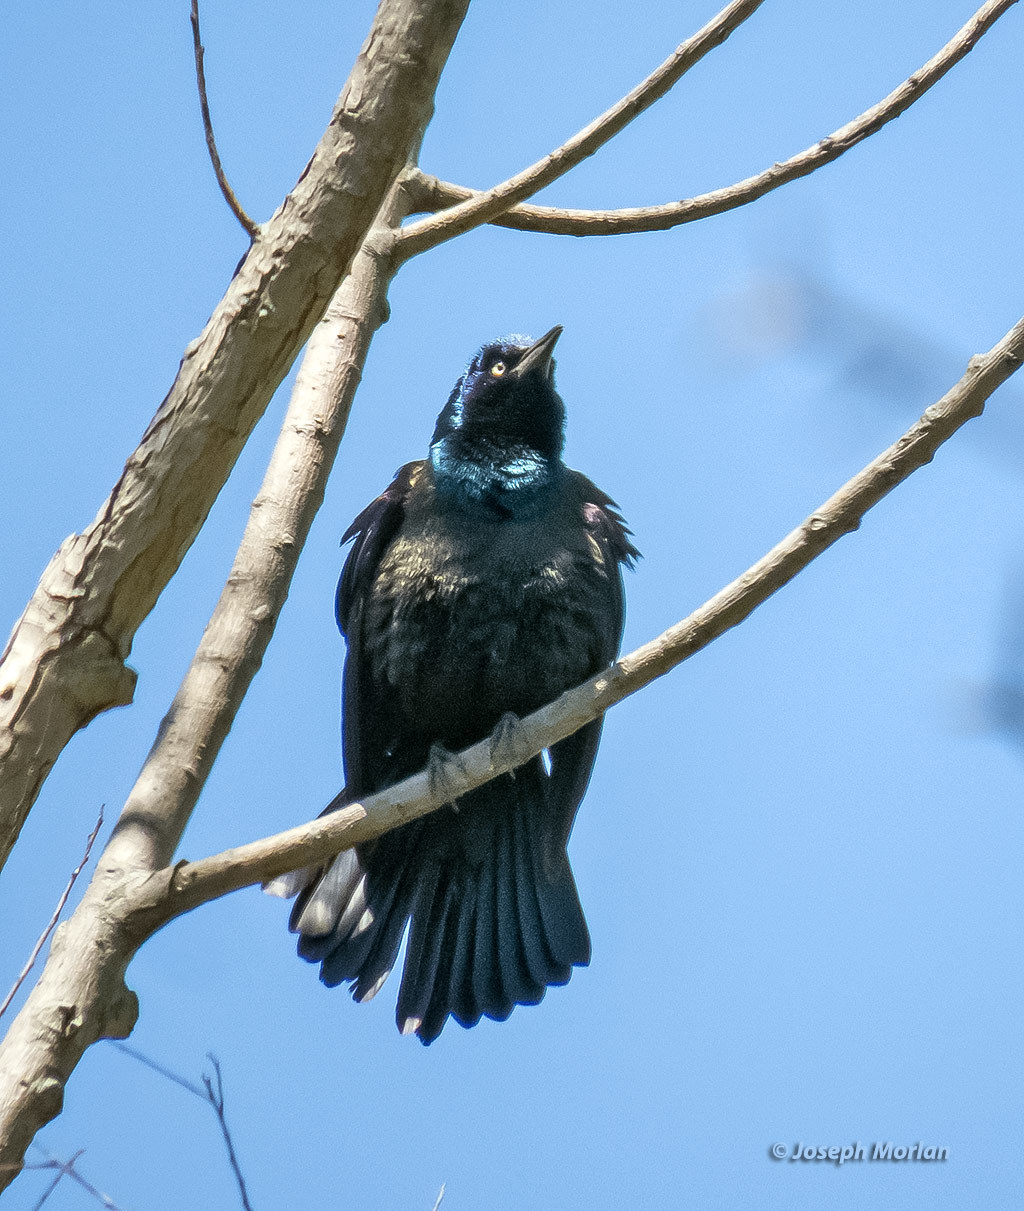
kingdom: Animalia
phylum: Chordata
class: Aves
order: Passeriformes
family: Icteridae
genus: Quiscalus
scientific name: Quiscalus quiscula
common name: Common grackle
